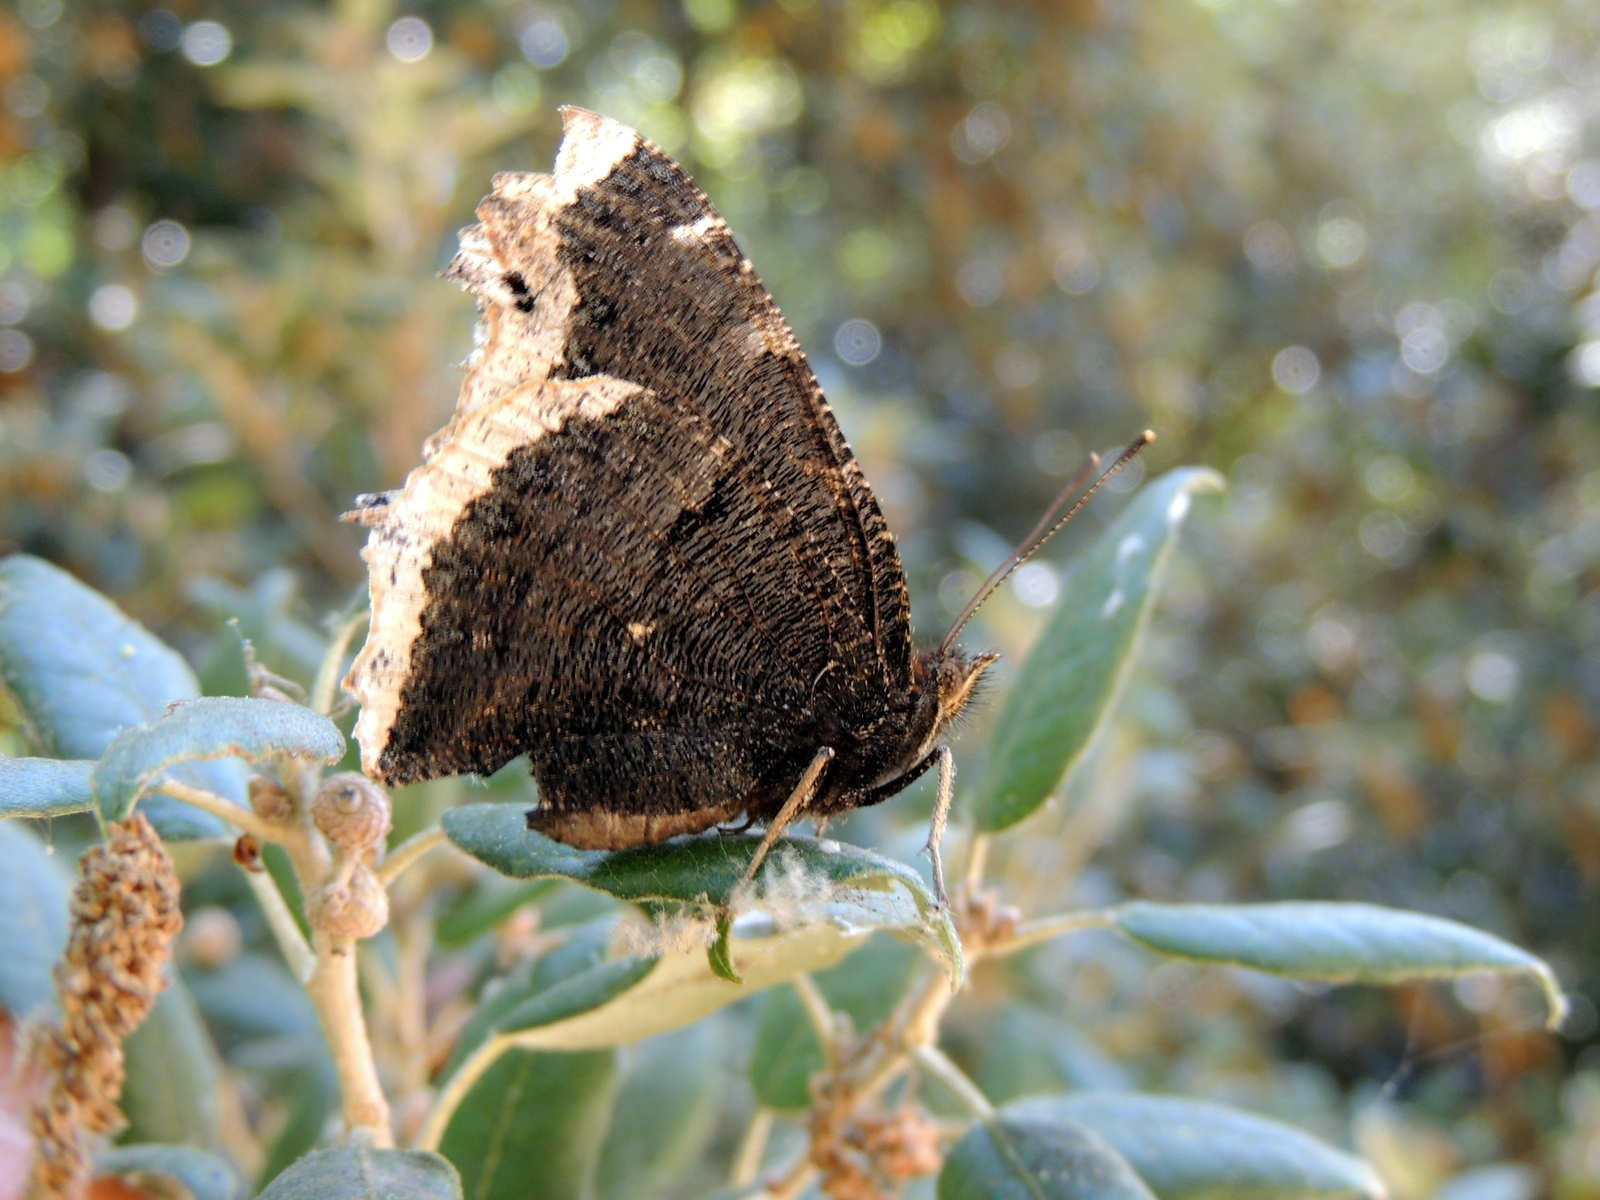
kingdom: Animalia
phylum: Arthropoda
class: Insecta
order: Lepidoptera
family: Nymphalidae
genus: Nymphalis
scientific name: Nymphalis antiopa
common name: Camberwell beauty
